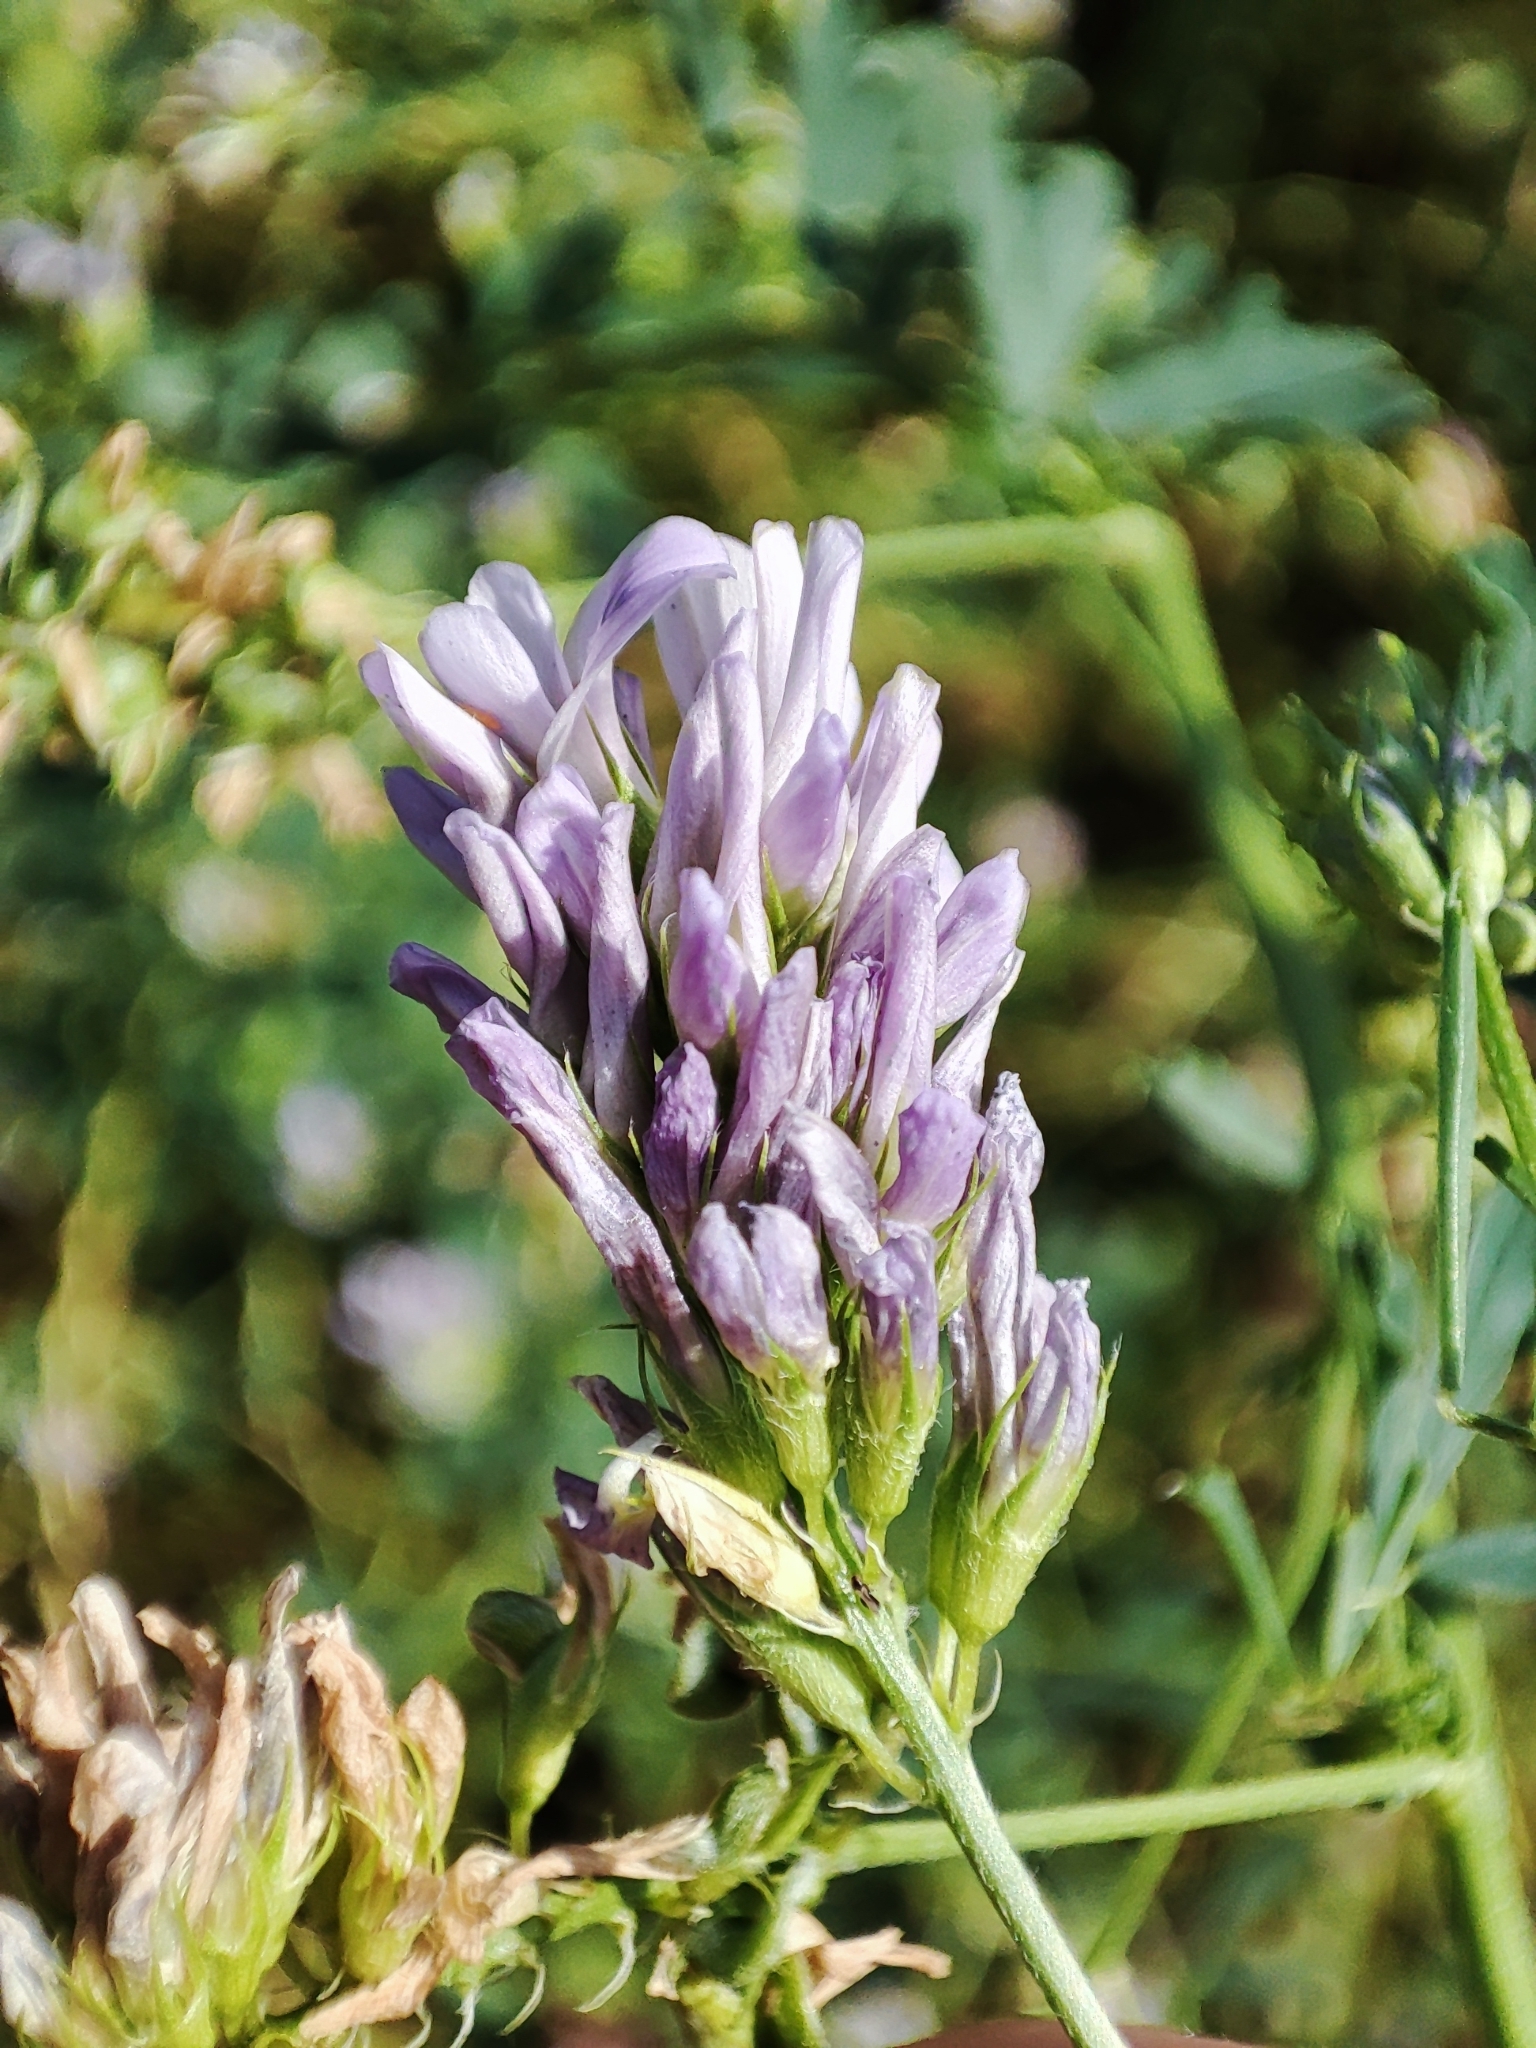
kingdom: Plantae
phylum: Tracheophyta
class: Magnoliopsida
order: Fabales
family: Fabaceae
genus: Medicago
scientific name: Medicago sativa
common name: Alfalfa
